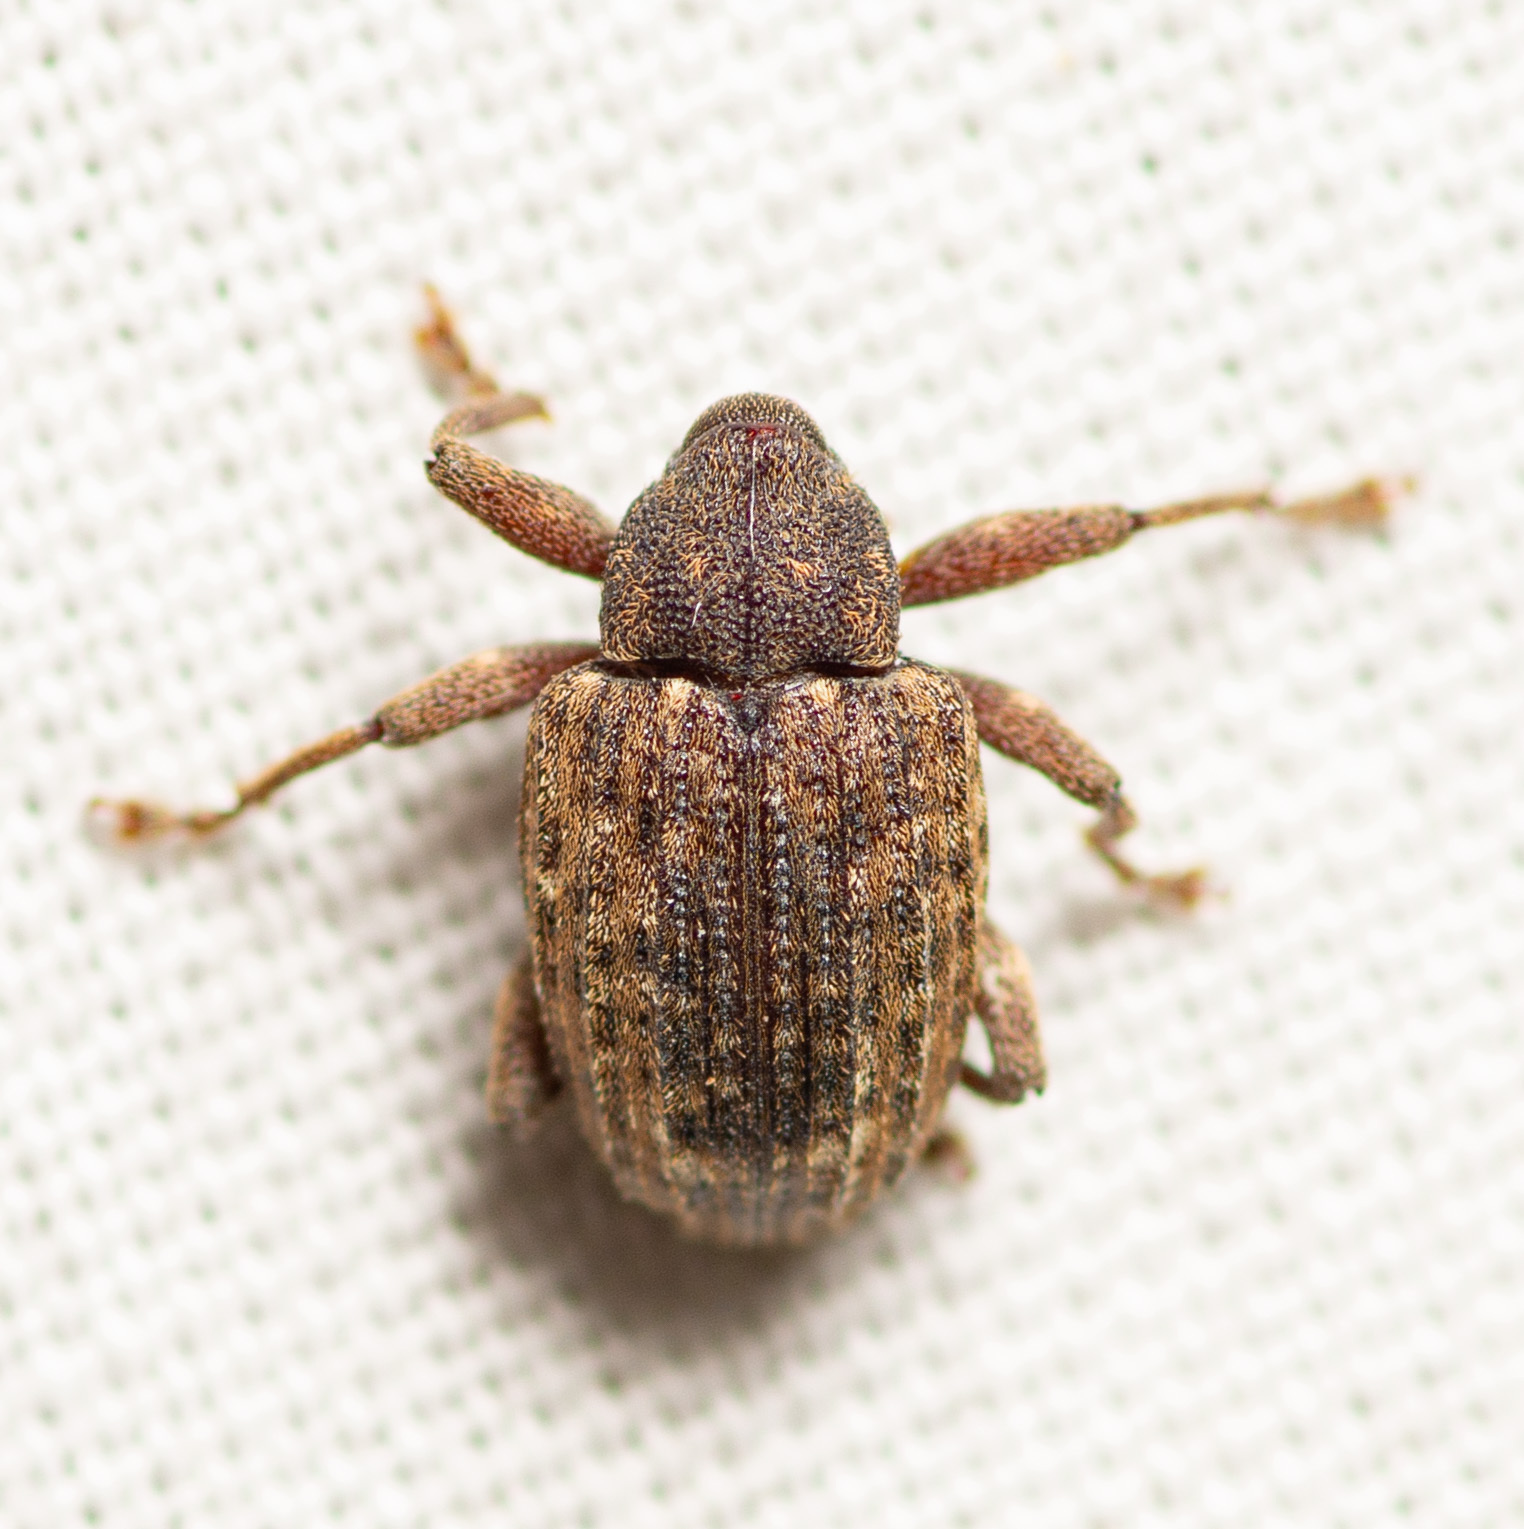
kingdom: Animalia
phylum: Arthropoda
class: Insecta
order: Coleoptera
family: Curculionidae
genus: Conotrachelus
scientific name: Conotrachelus naso
